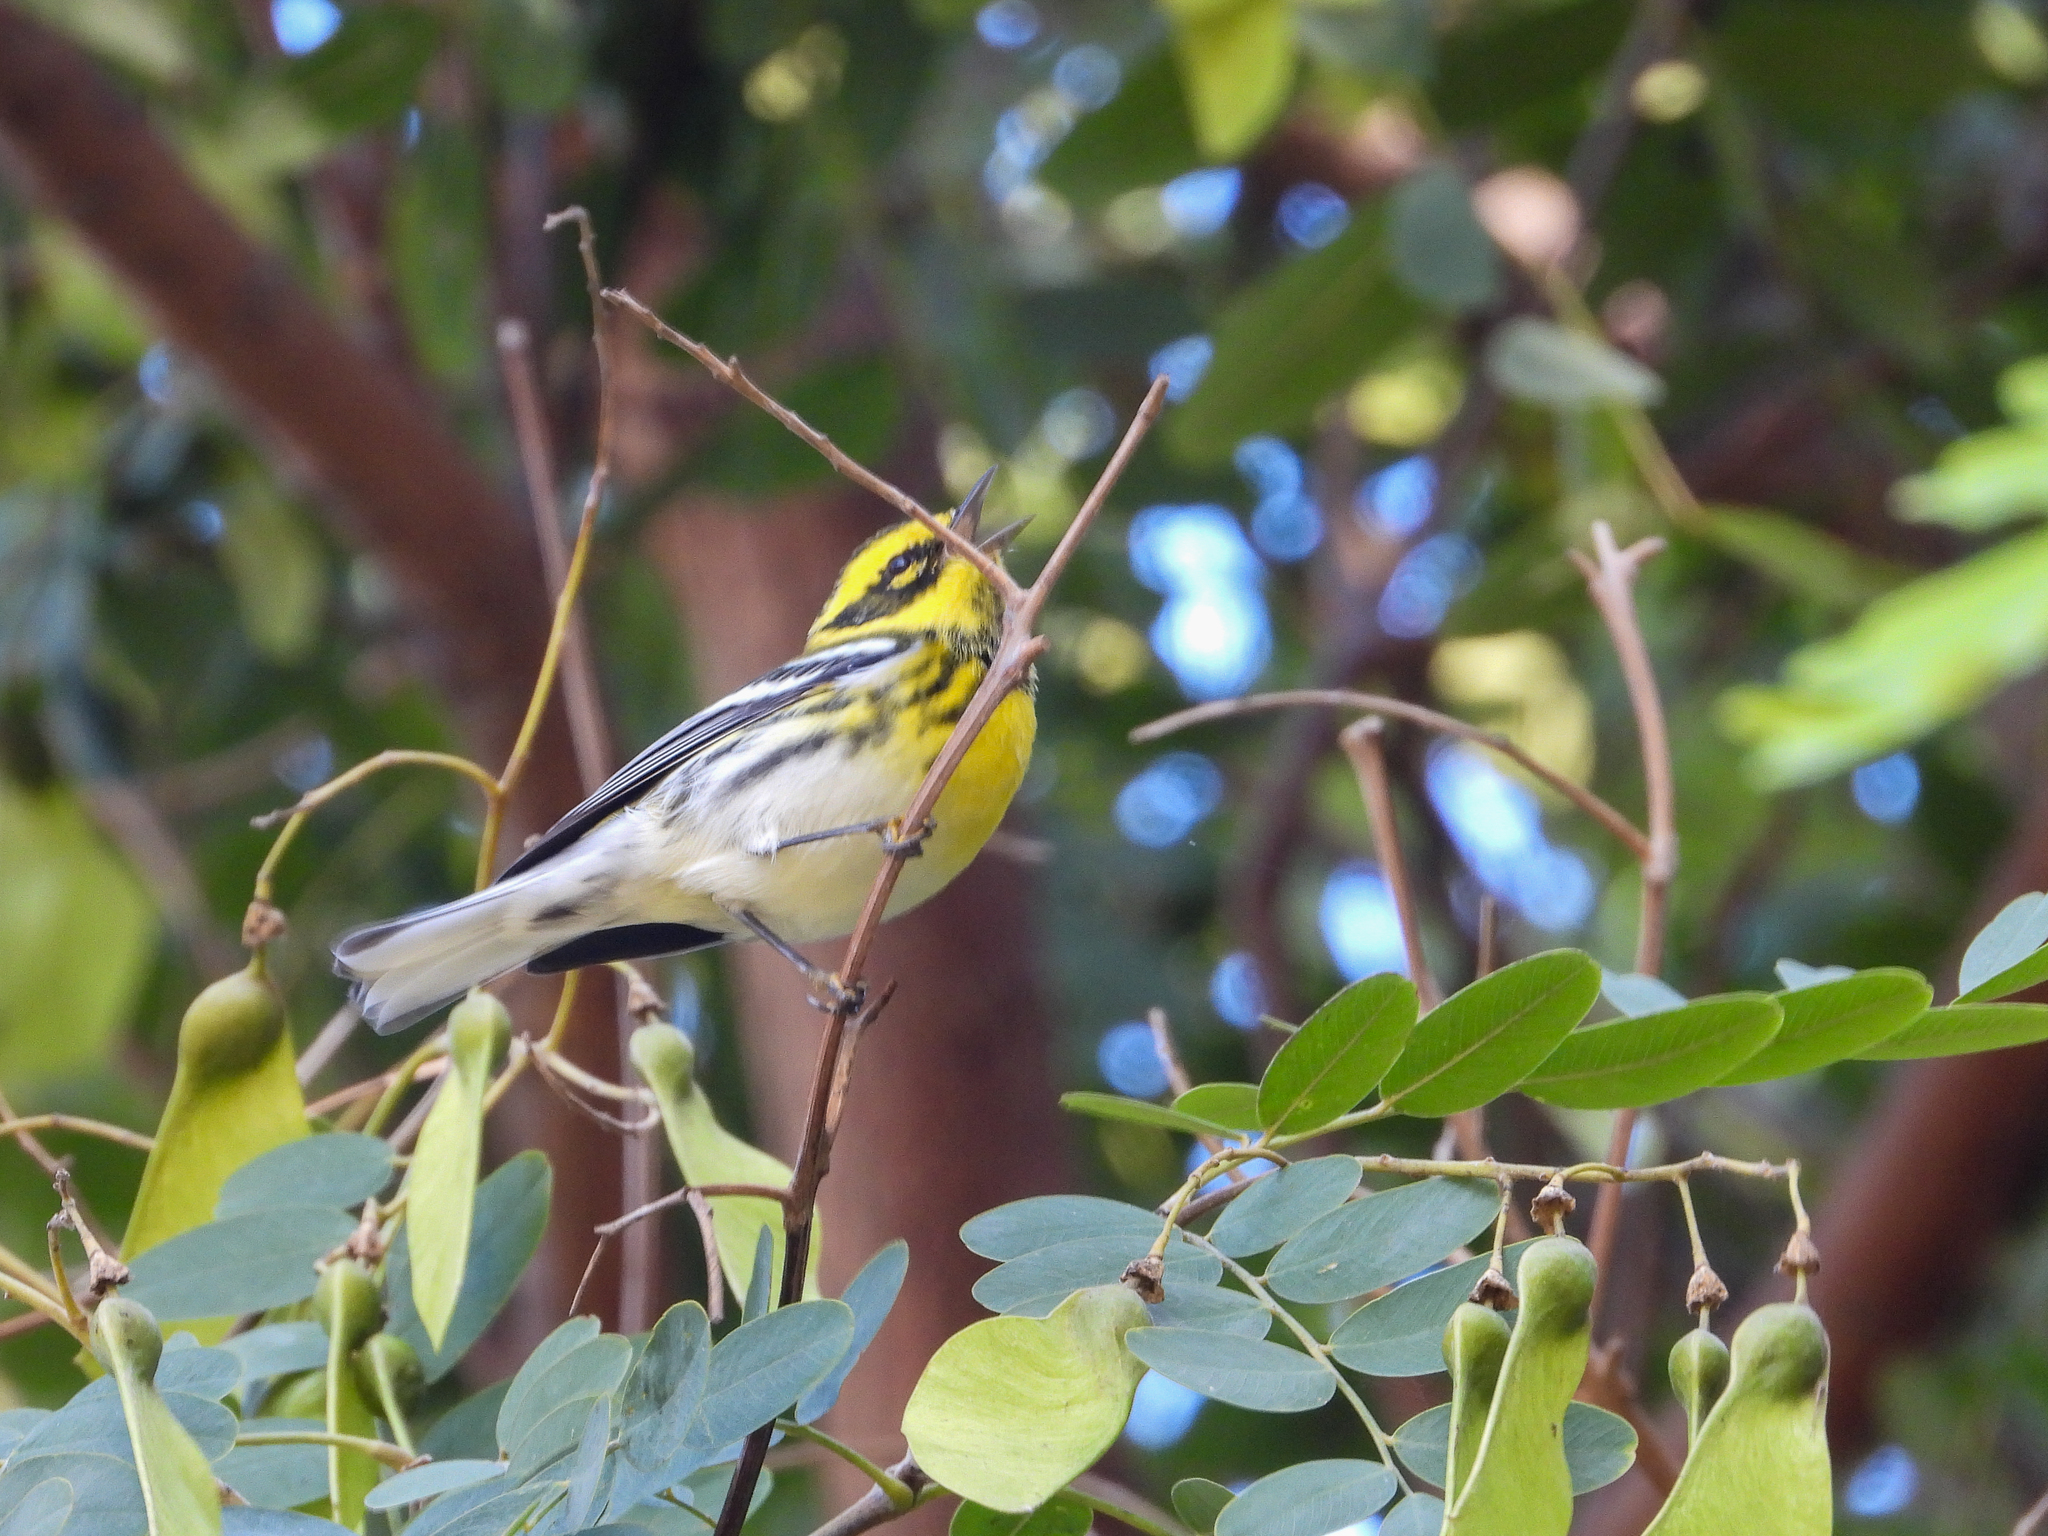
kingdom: Animalia
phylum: Chordata
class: Aves
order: Passeriformes
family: Parulidae
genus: Setophaga
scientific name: Setophaga townsendi
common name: Townsend's warbler
